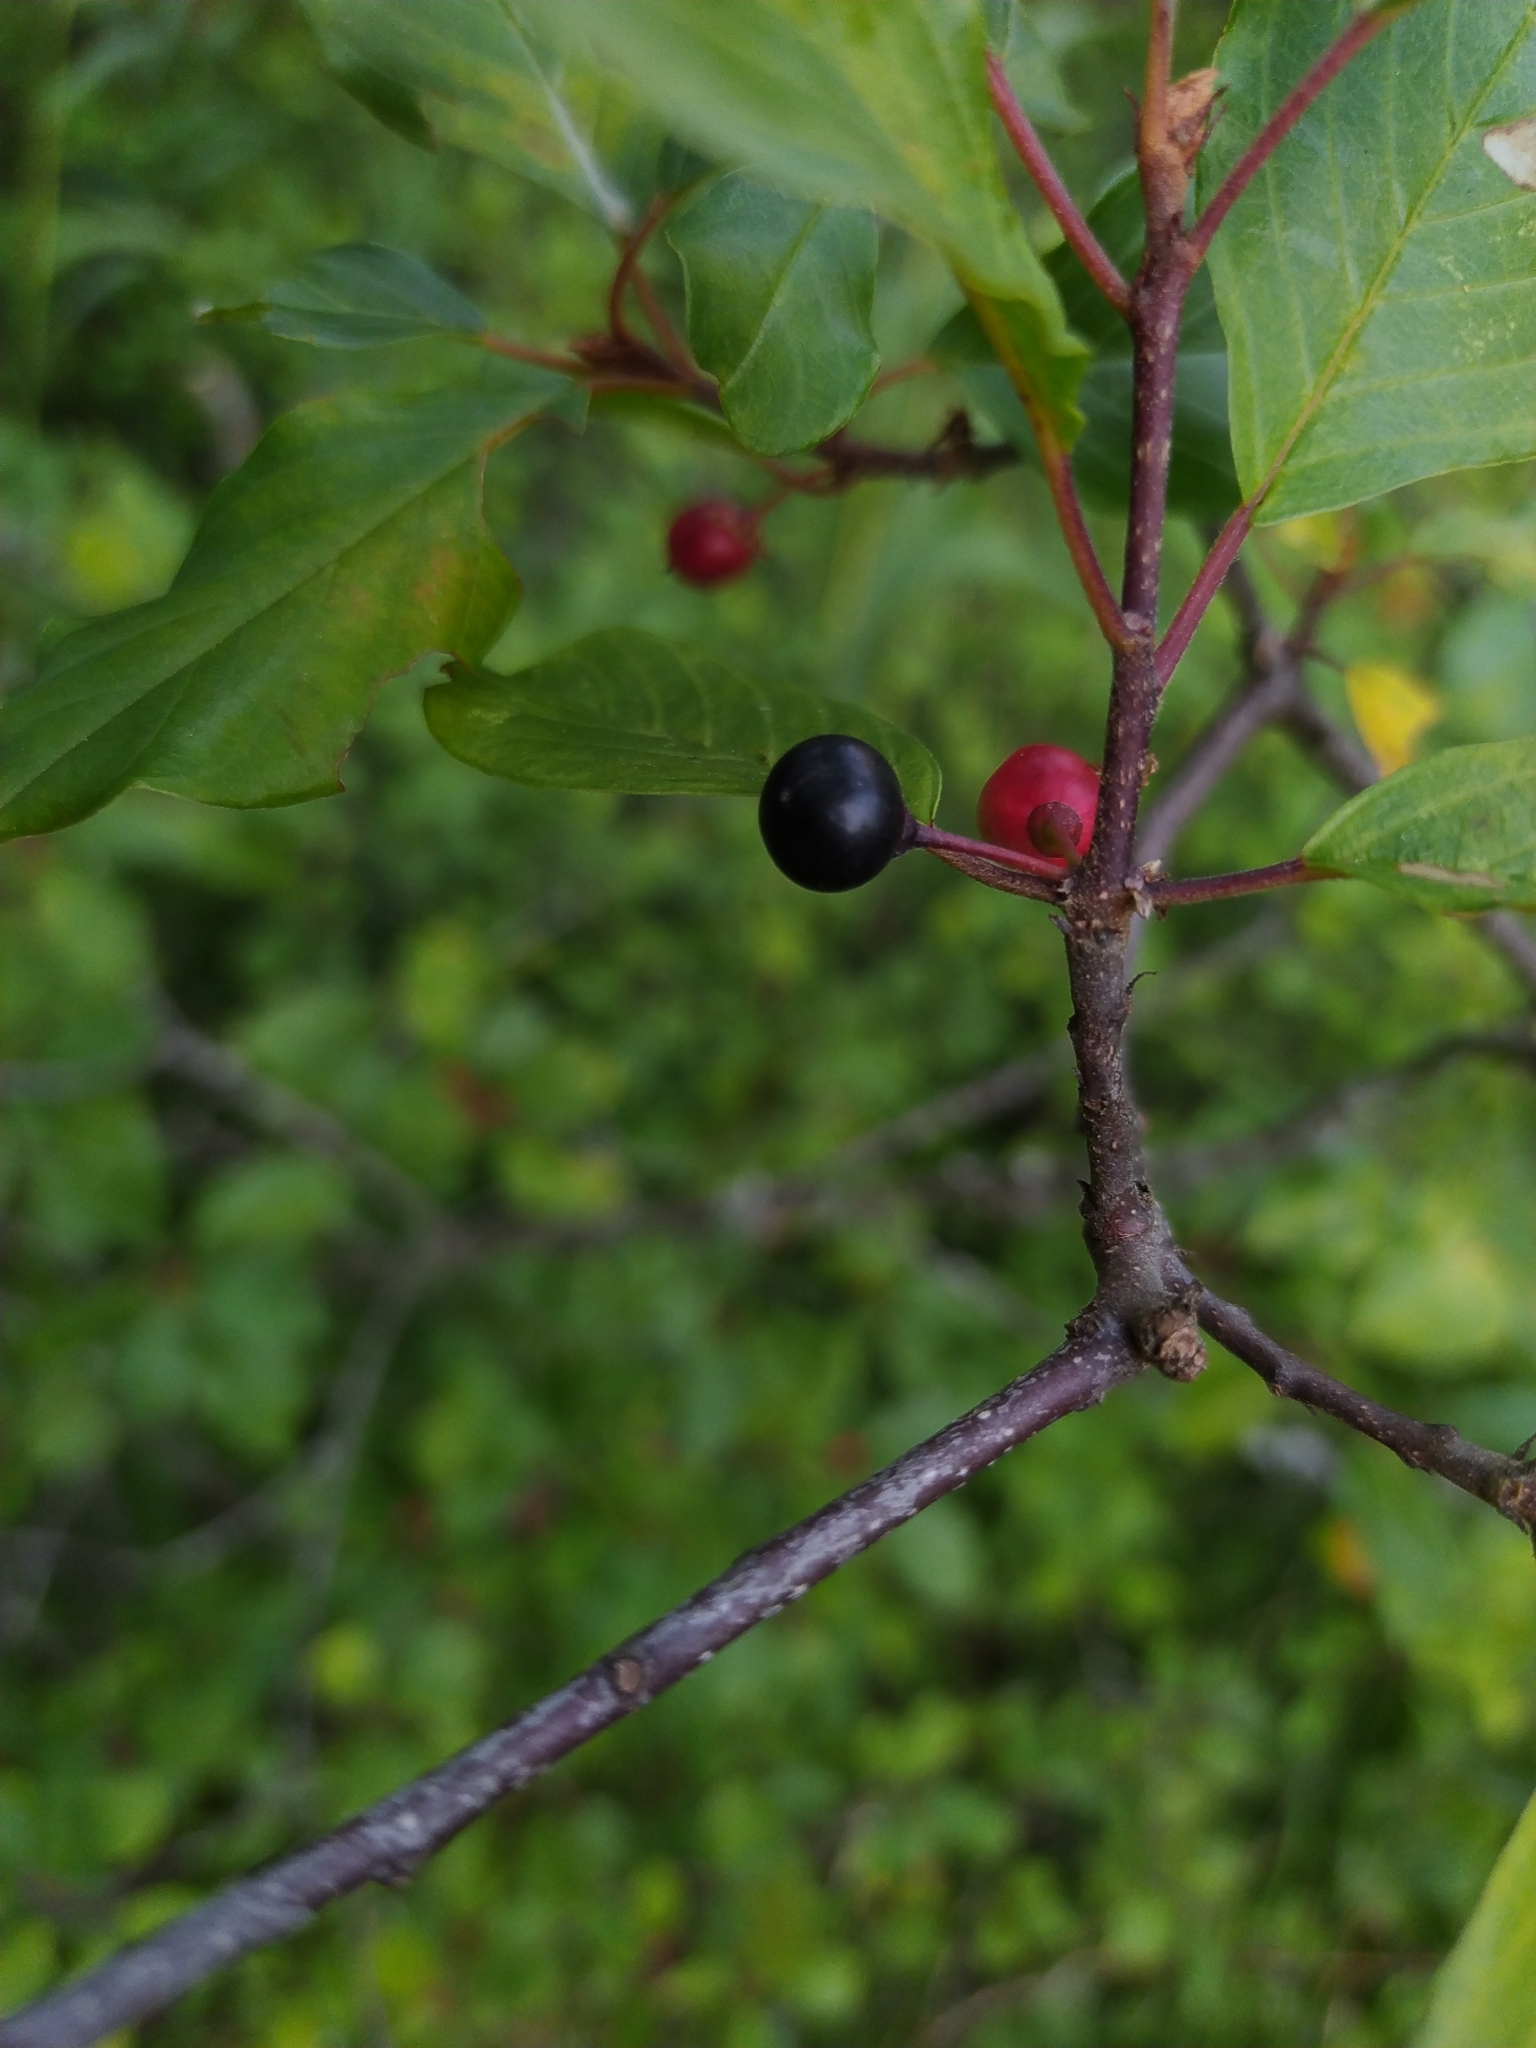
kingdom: Plantae
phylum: Tracheophyta
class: Magnoliopsida
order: Rosales
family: Rhamnaceae
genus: Frangula
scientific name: Frangula alnus
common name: Alder buckthorn
